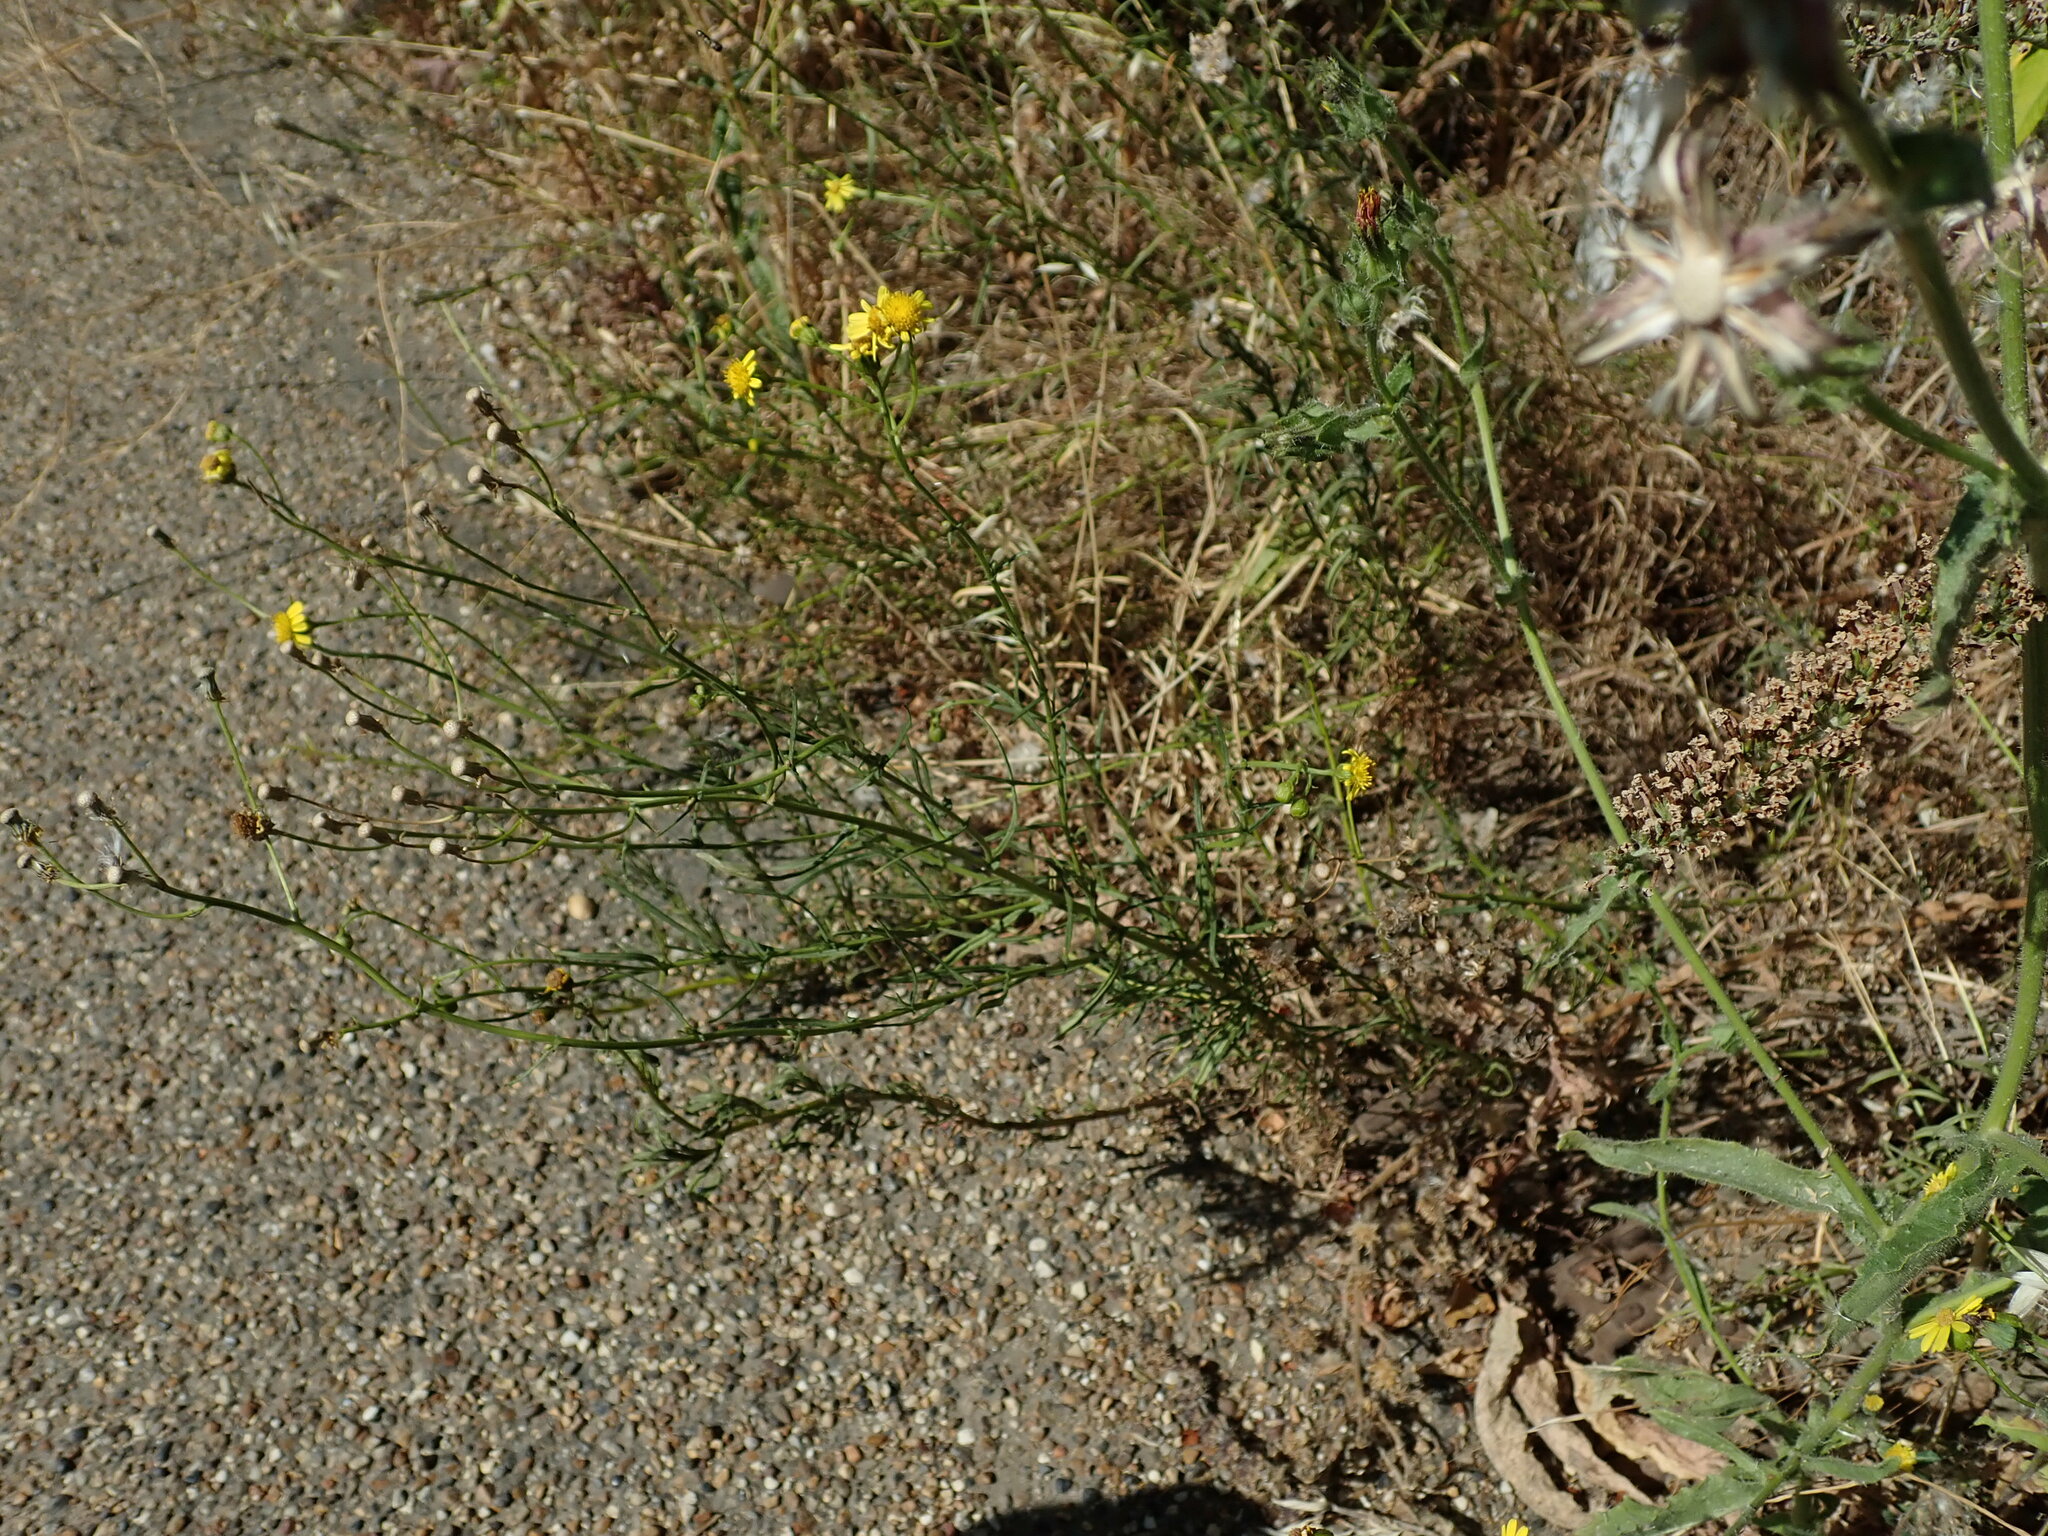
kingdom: Plantae
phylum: Tracheophyta
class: Magnoliopsida
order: Asterales
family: Asteraceae
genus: Senecio
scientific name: Senecio inaequidens
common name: Narrow-leaved ragwort
